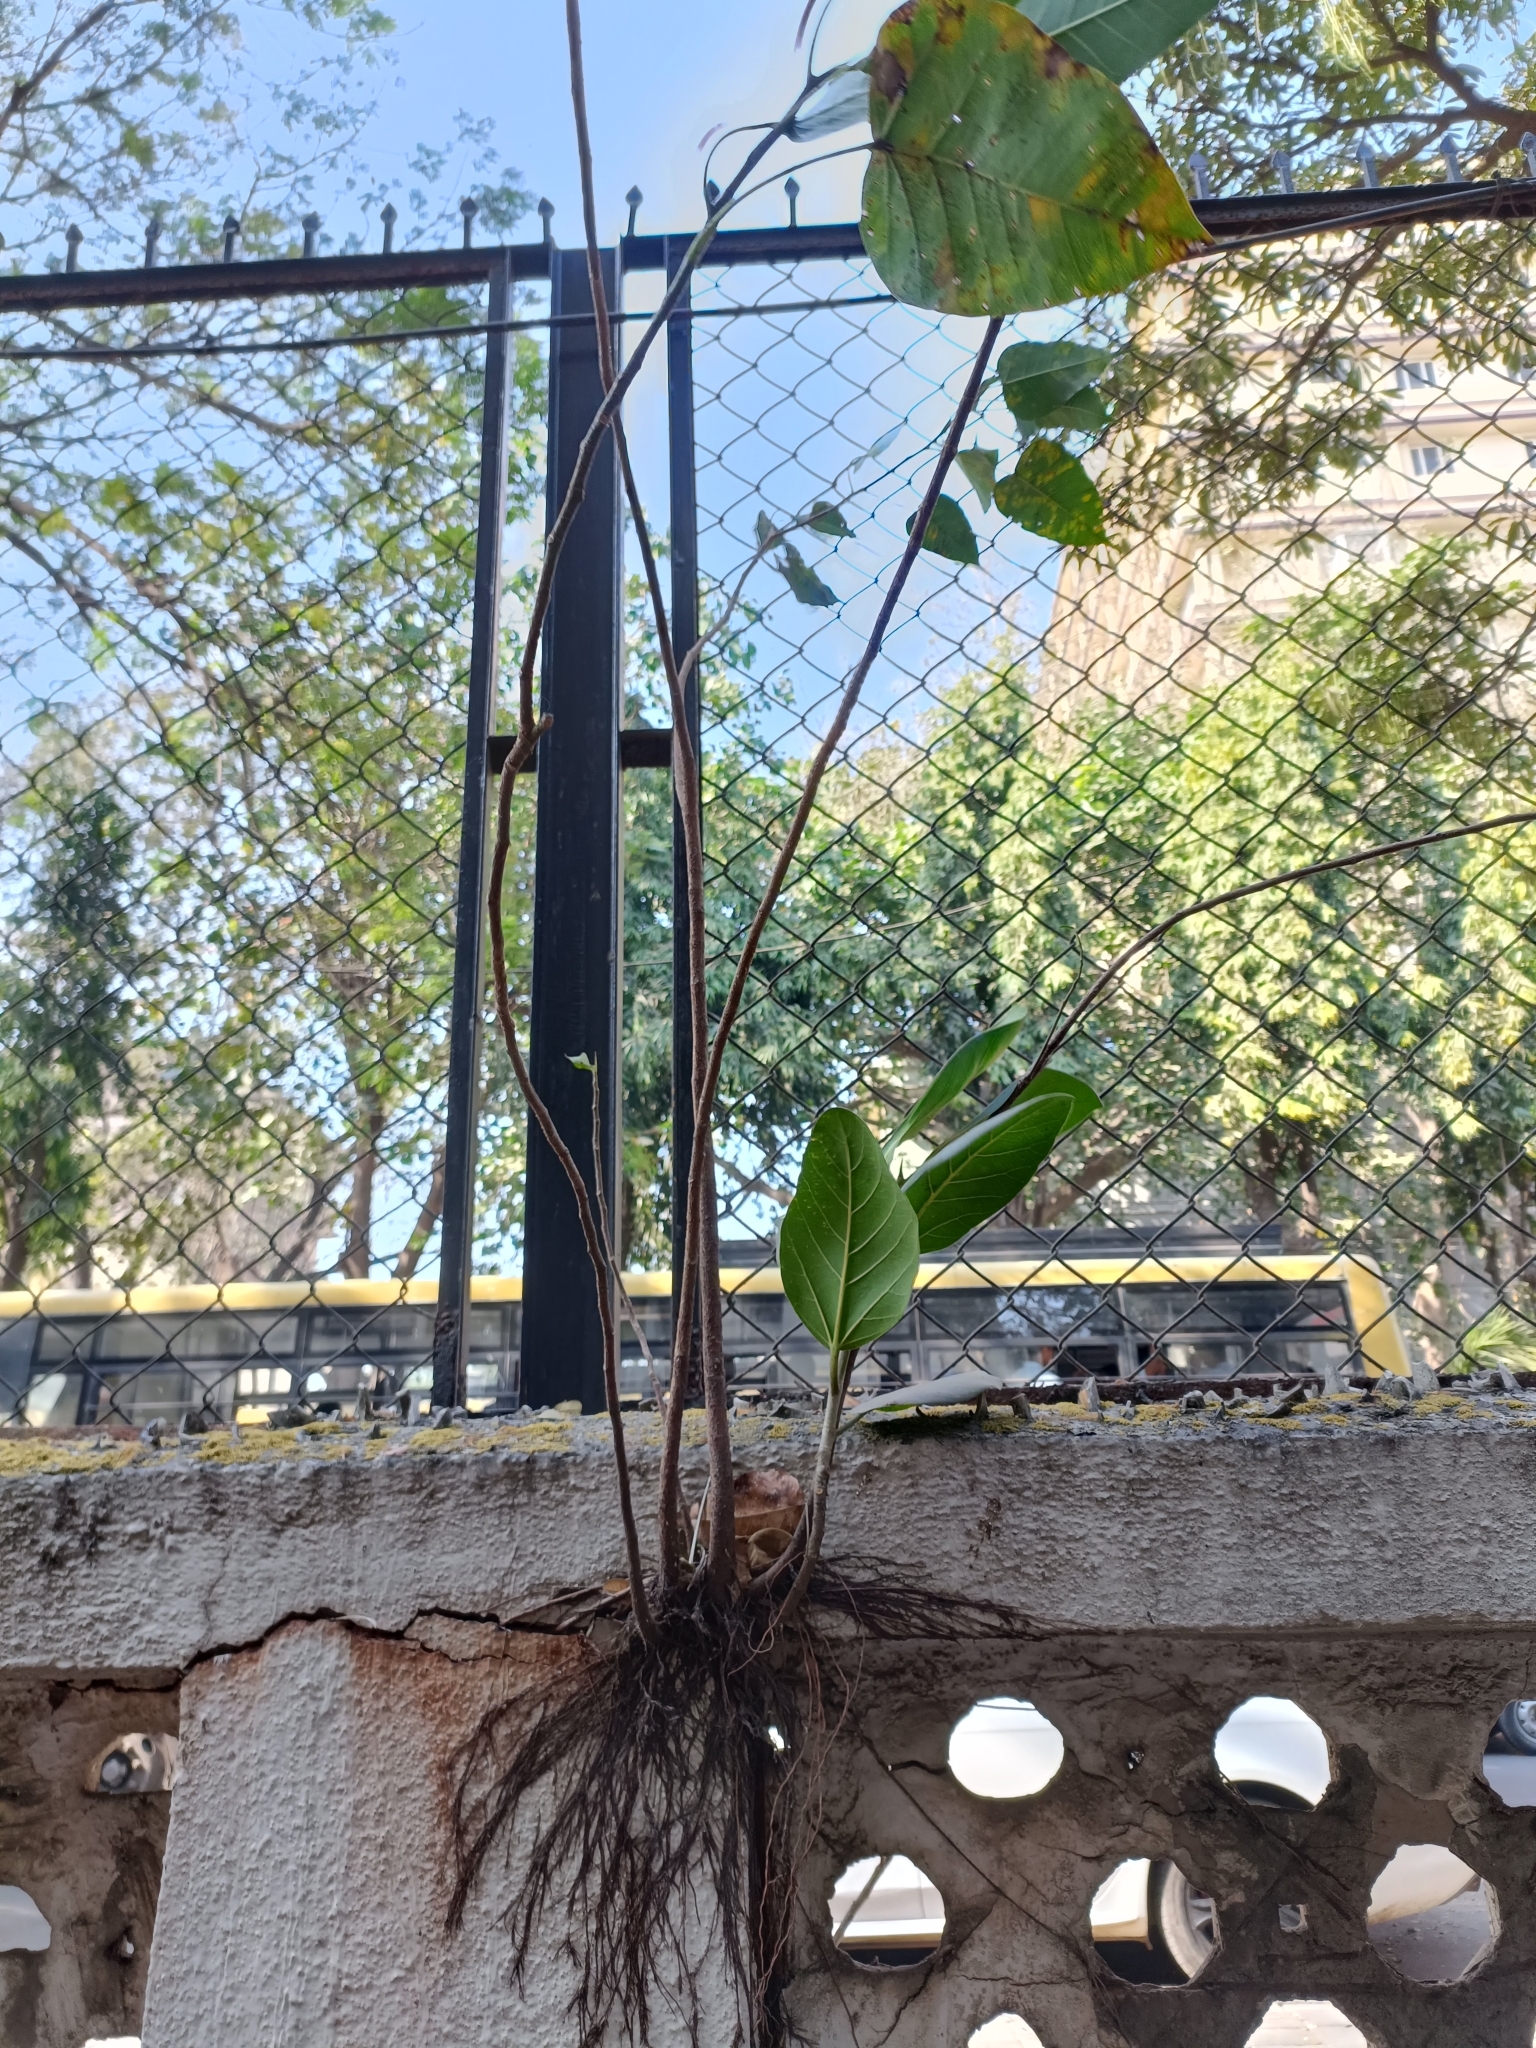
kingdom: Plantae
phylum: Tracheophyta
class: Magnoliopsida
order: Rosales
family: Moraceae
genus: Ficus
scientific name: Ficus religiosa
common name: Bodhi tree
